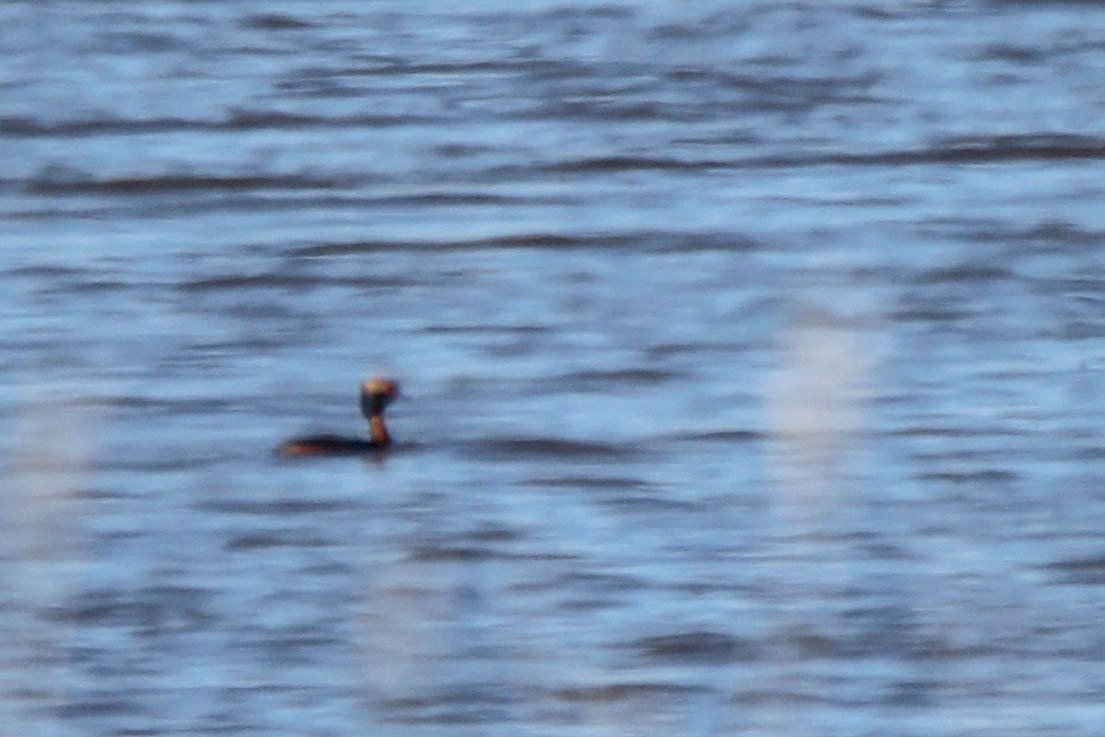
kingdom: Animalia
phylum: Chordata
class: Aves
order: Podicipediformes
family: Podicipedidae
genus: Podiceps
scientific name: Podiceps auritus
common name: Horned grebe
